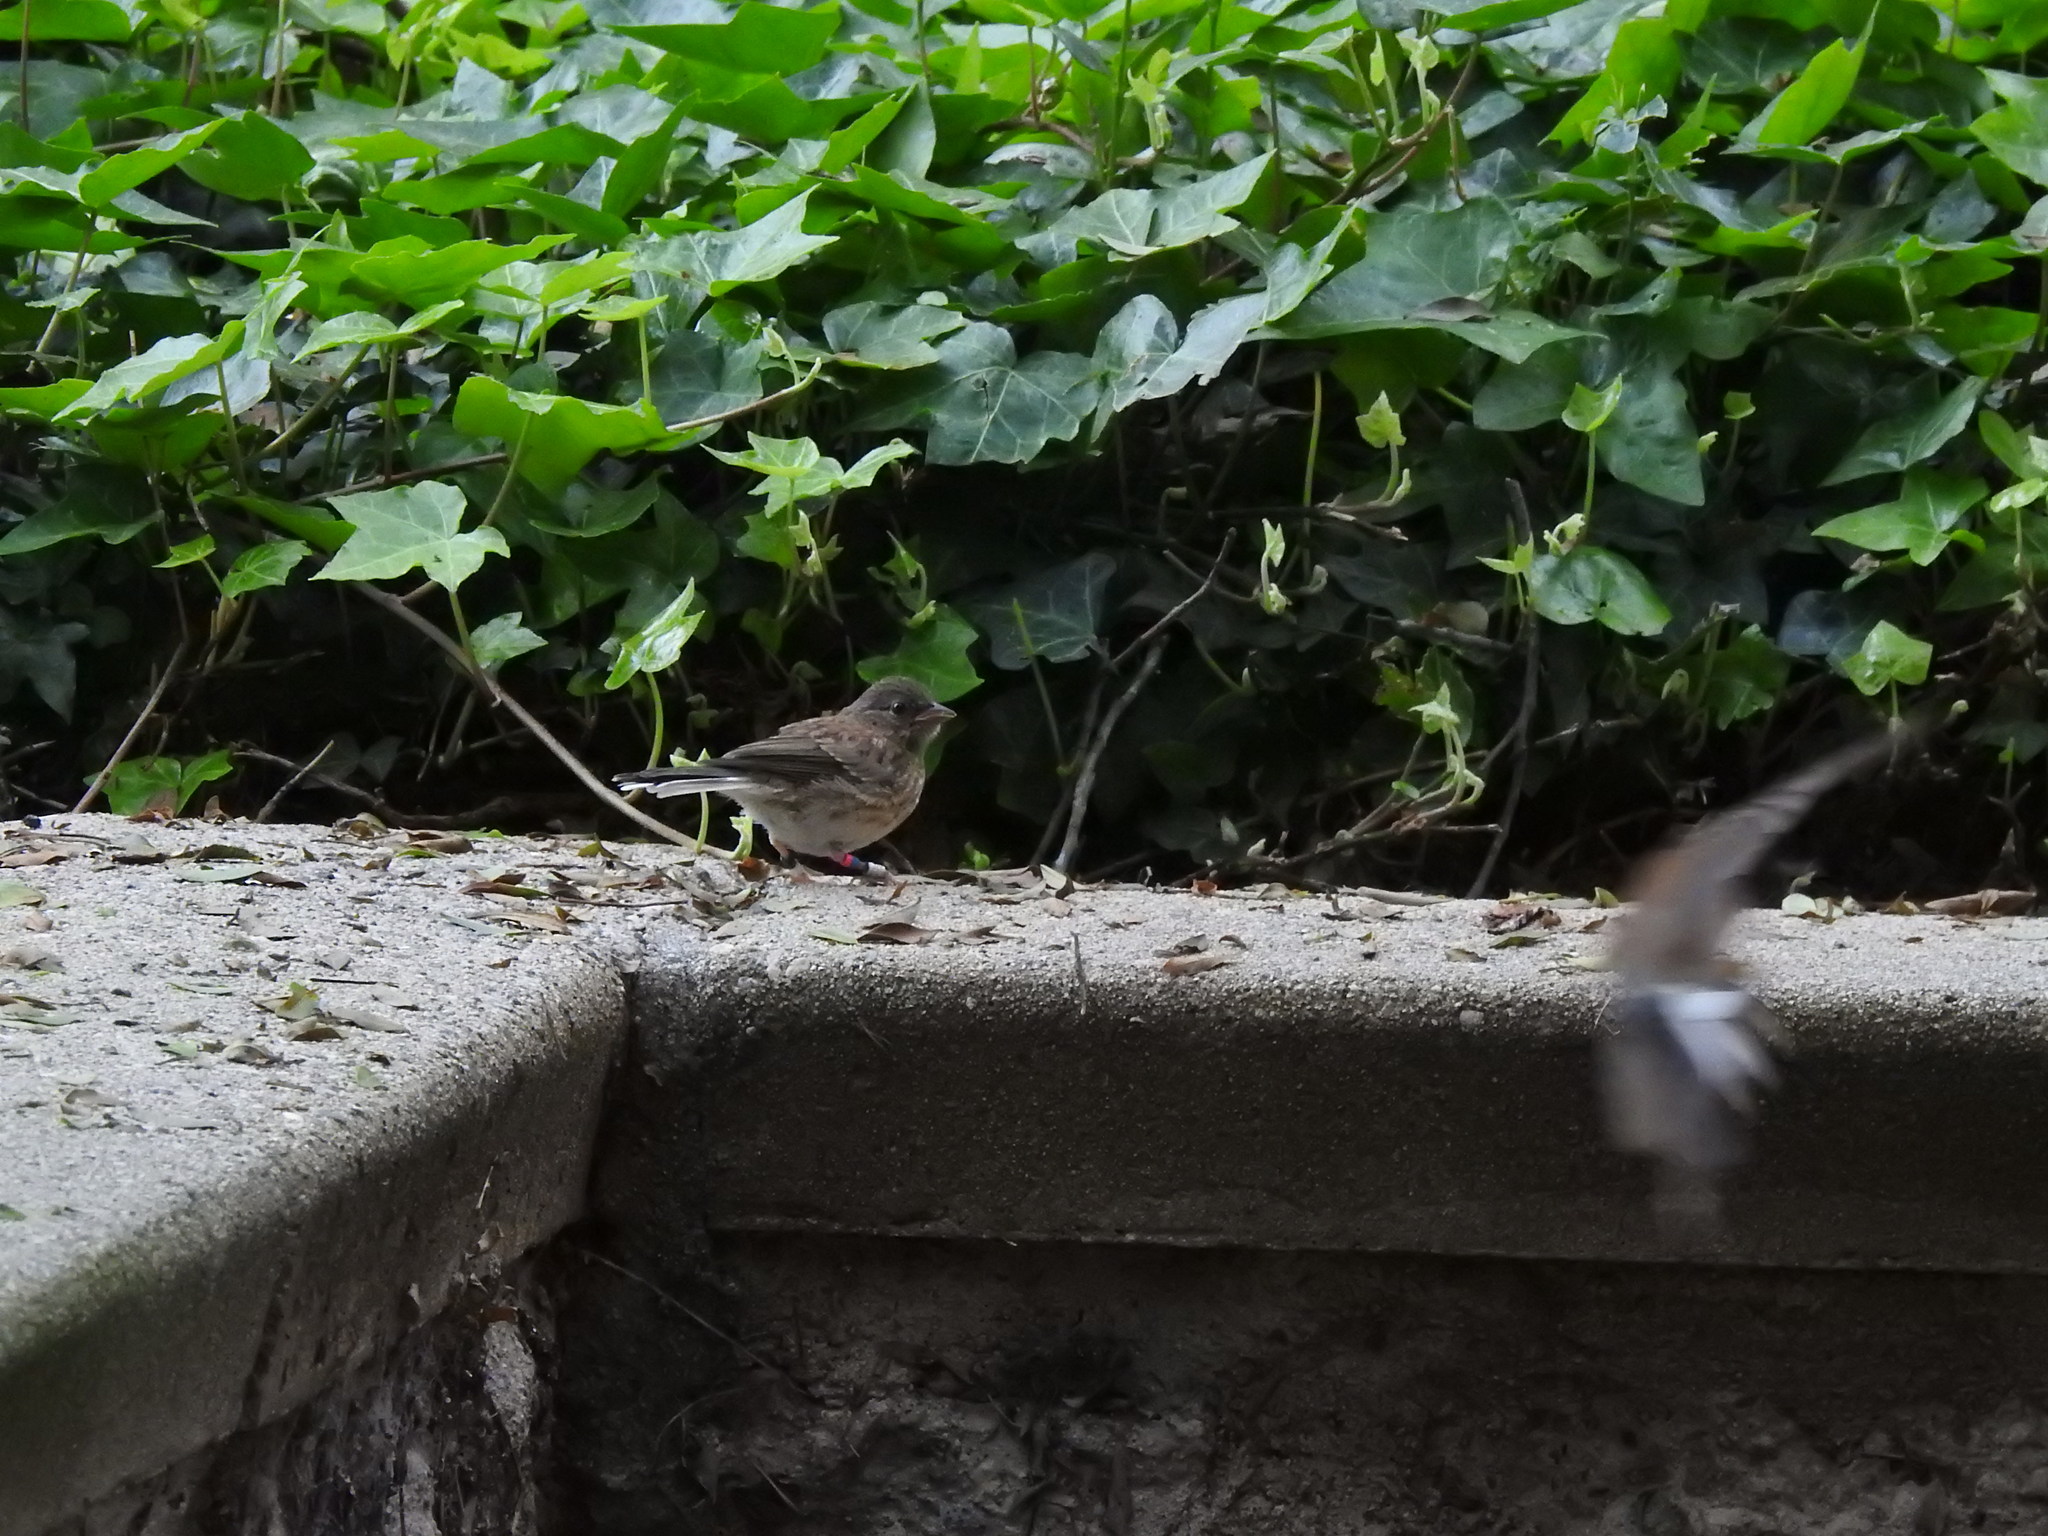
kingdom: Animalia
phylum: Chordata
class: Aves
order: Passeriformes
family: Passerellidae
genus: Junco
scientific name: Junco hyemalis
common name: Dark-eyed junco
